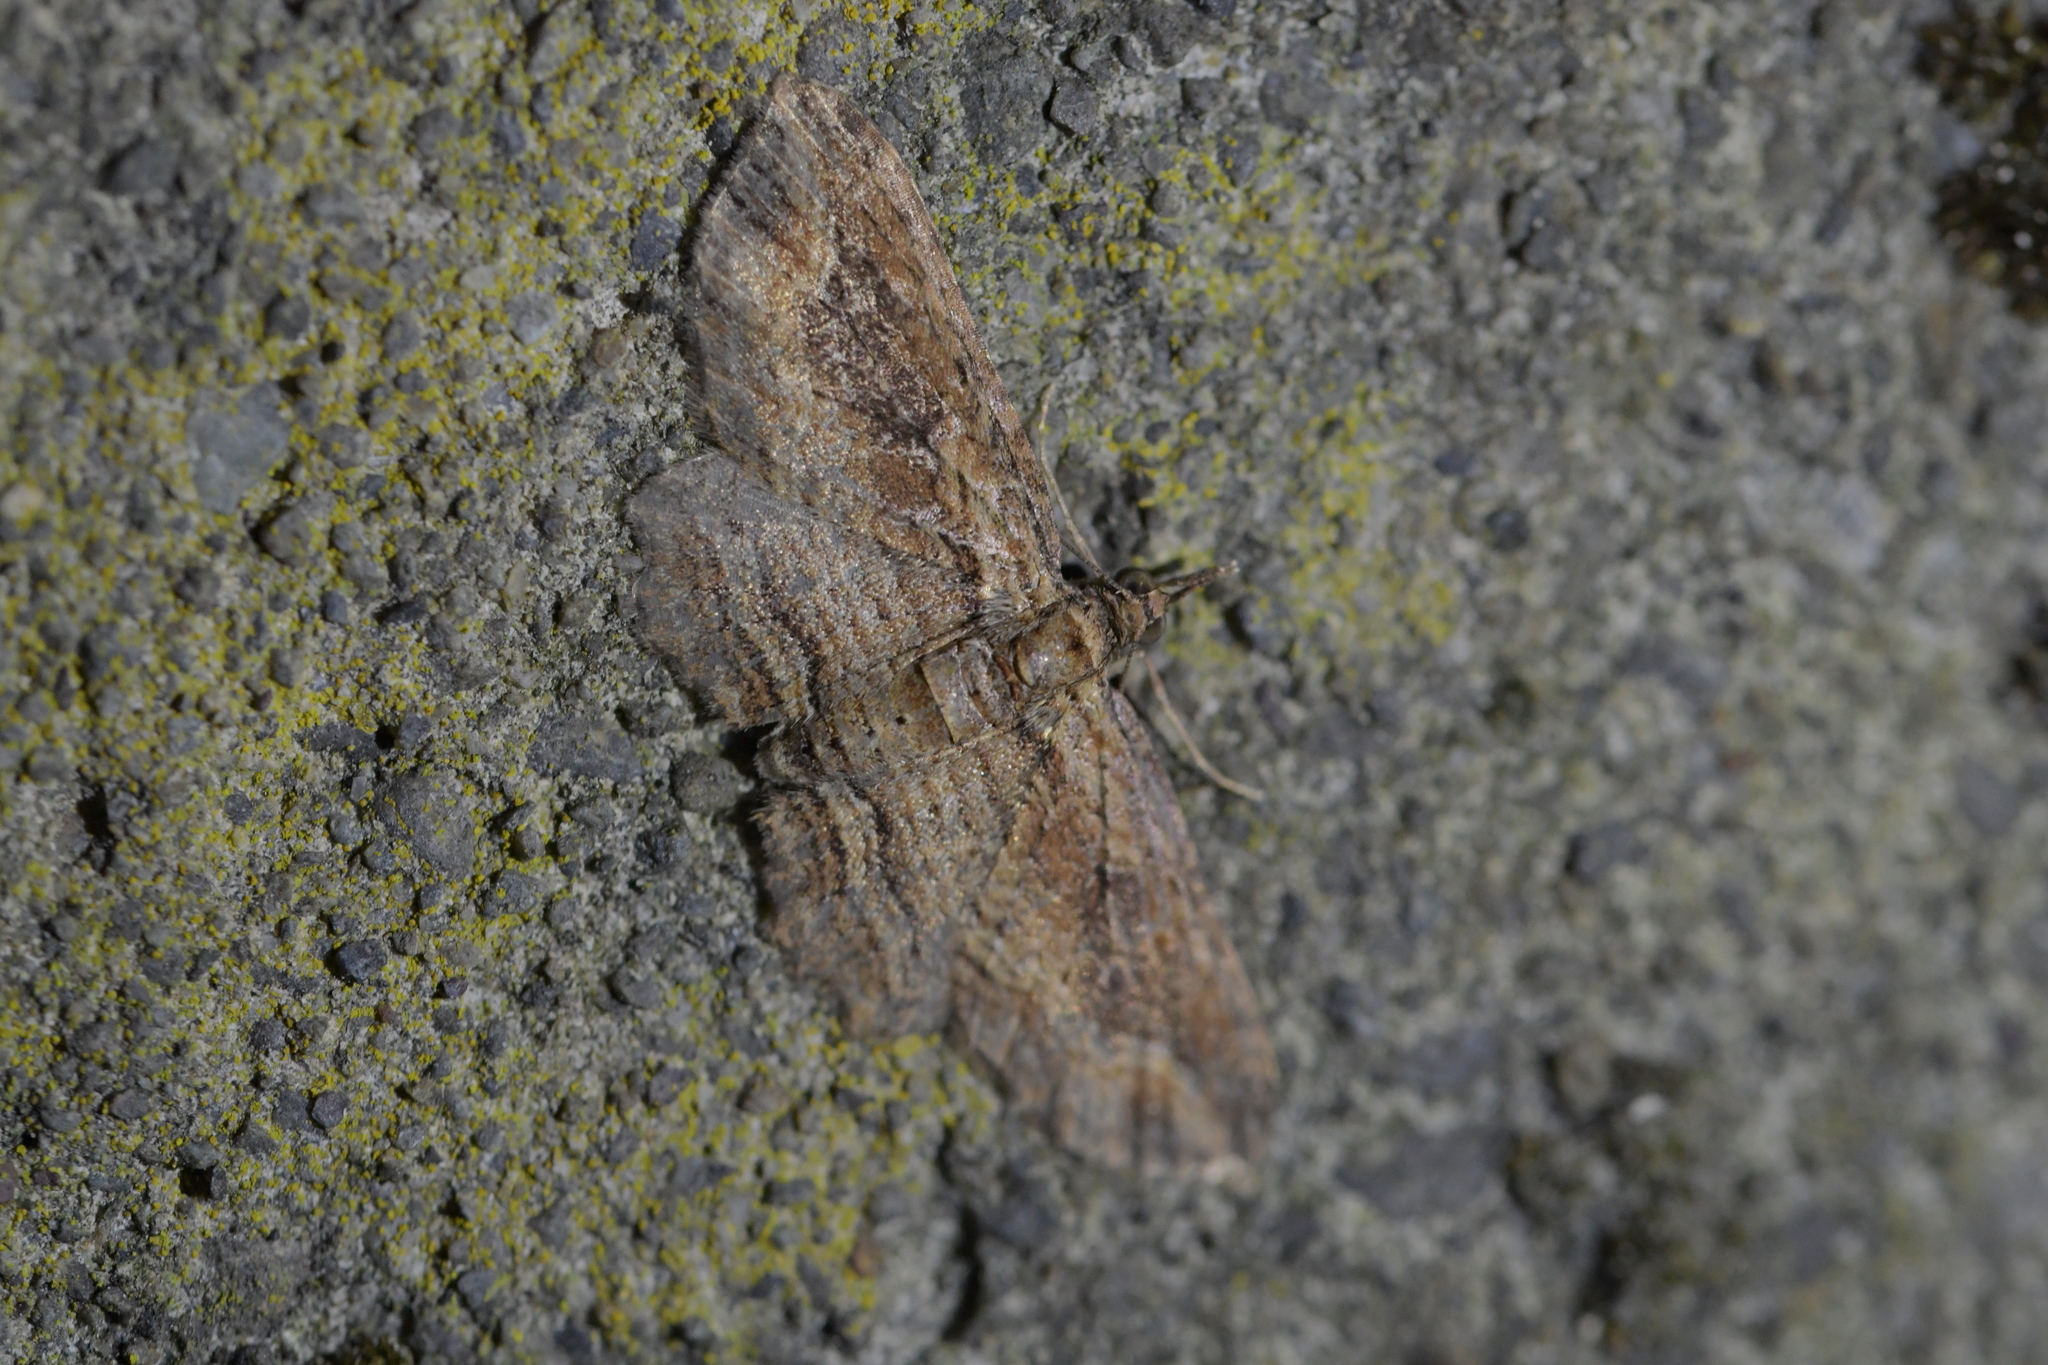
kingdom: Animalia
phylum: Arthropoda
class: Insecta
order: Lepidoptera
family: Geometridae
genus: Chloroclystis
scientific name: Chloroclystis filata
